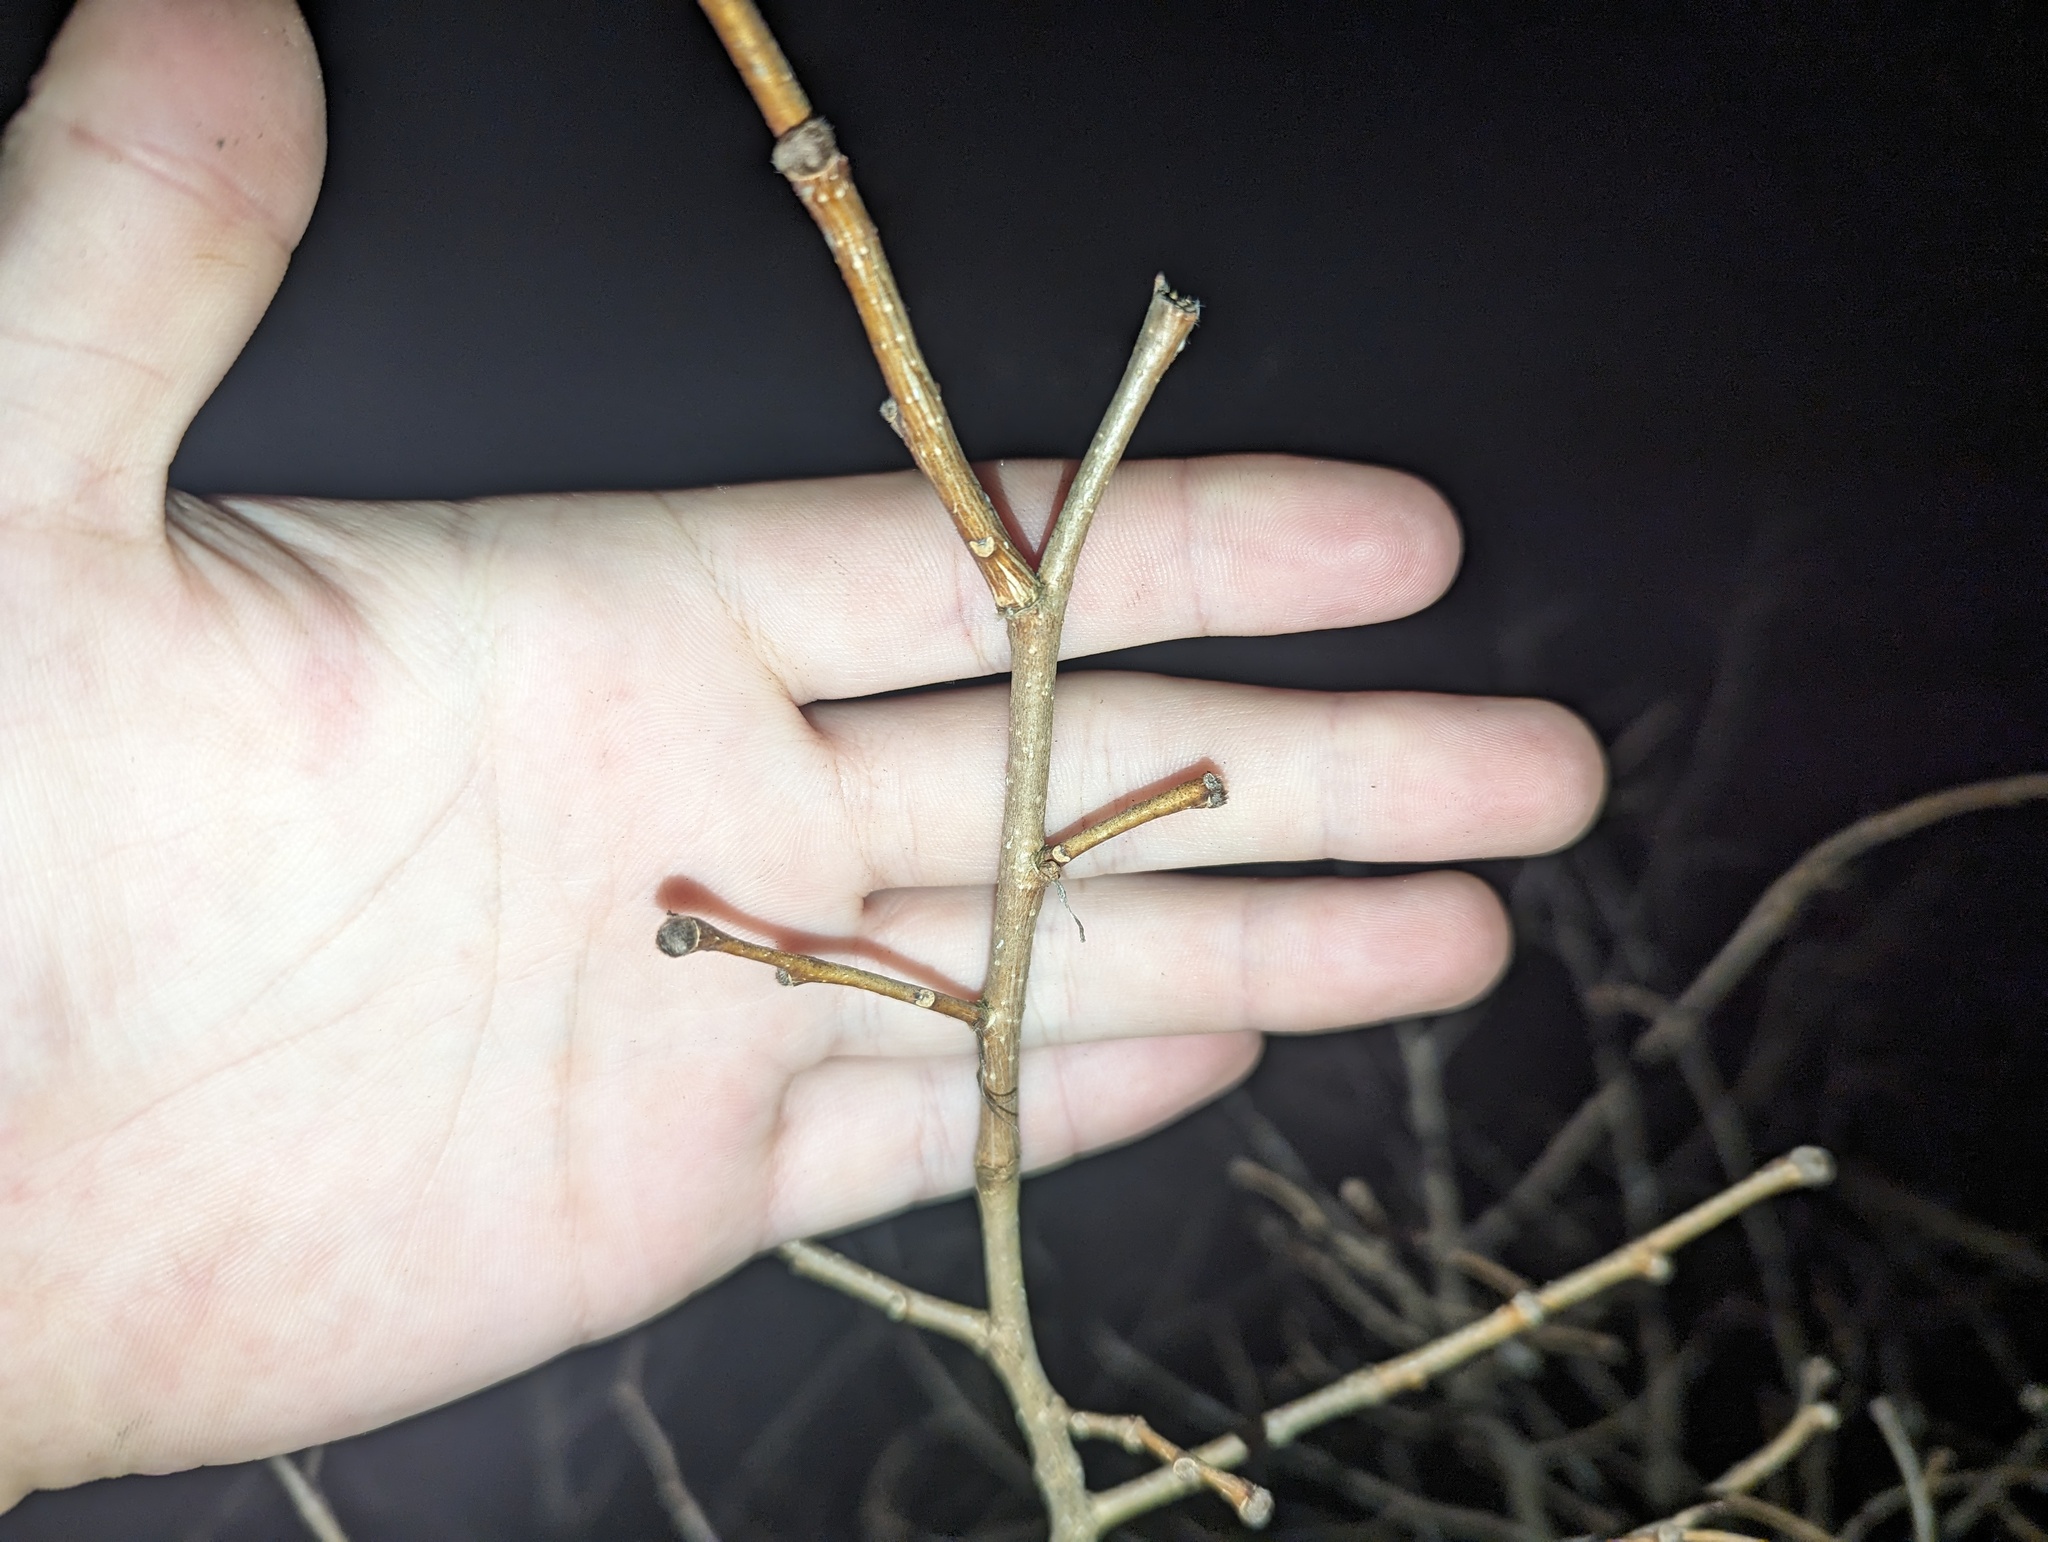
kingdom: Plantae
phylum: Tracheophyta
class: Magnoliopsida
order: Malvales
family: Thymelaeaceae
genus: Dirca
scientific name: Dirca palustris
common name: Leatherwood
